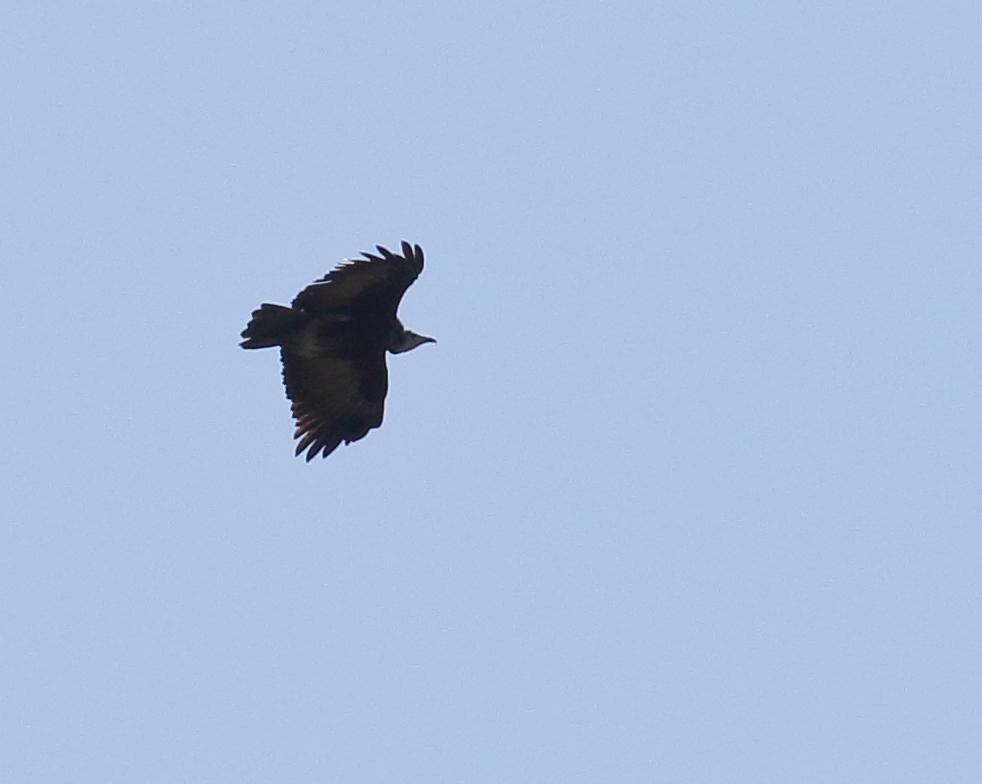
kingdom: Animalia
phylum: Chordata
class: Aves
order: Accipitriformes
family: Accipitridae
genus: Necrosyrtes
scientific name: Necrosyrtes monachus
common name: Hooded vulture
